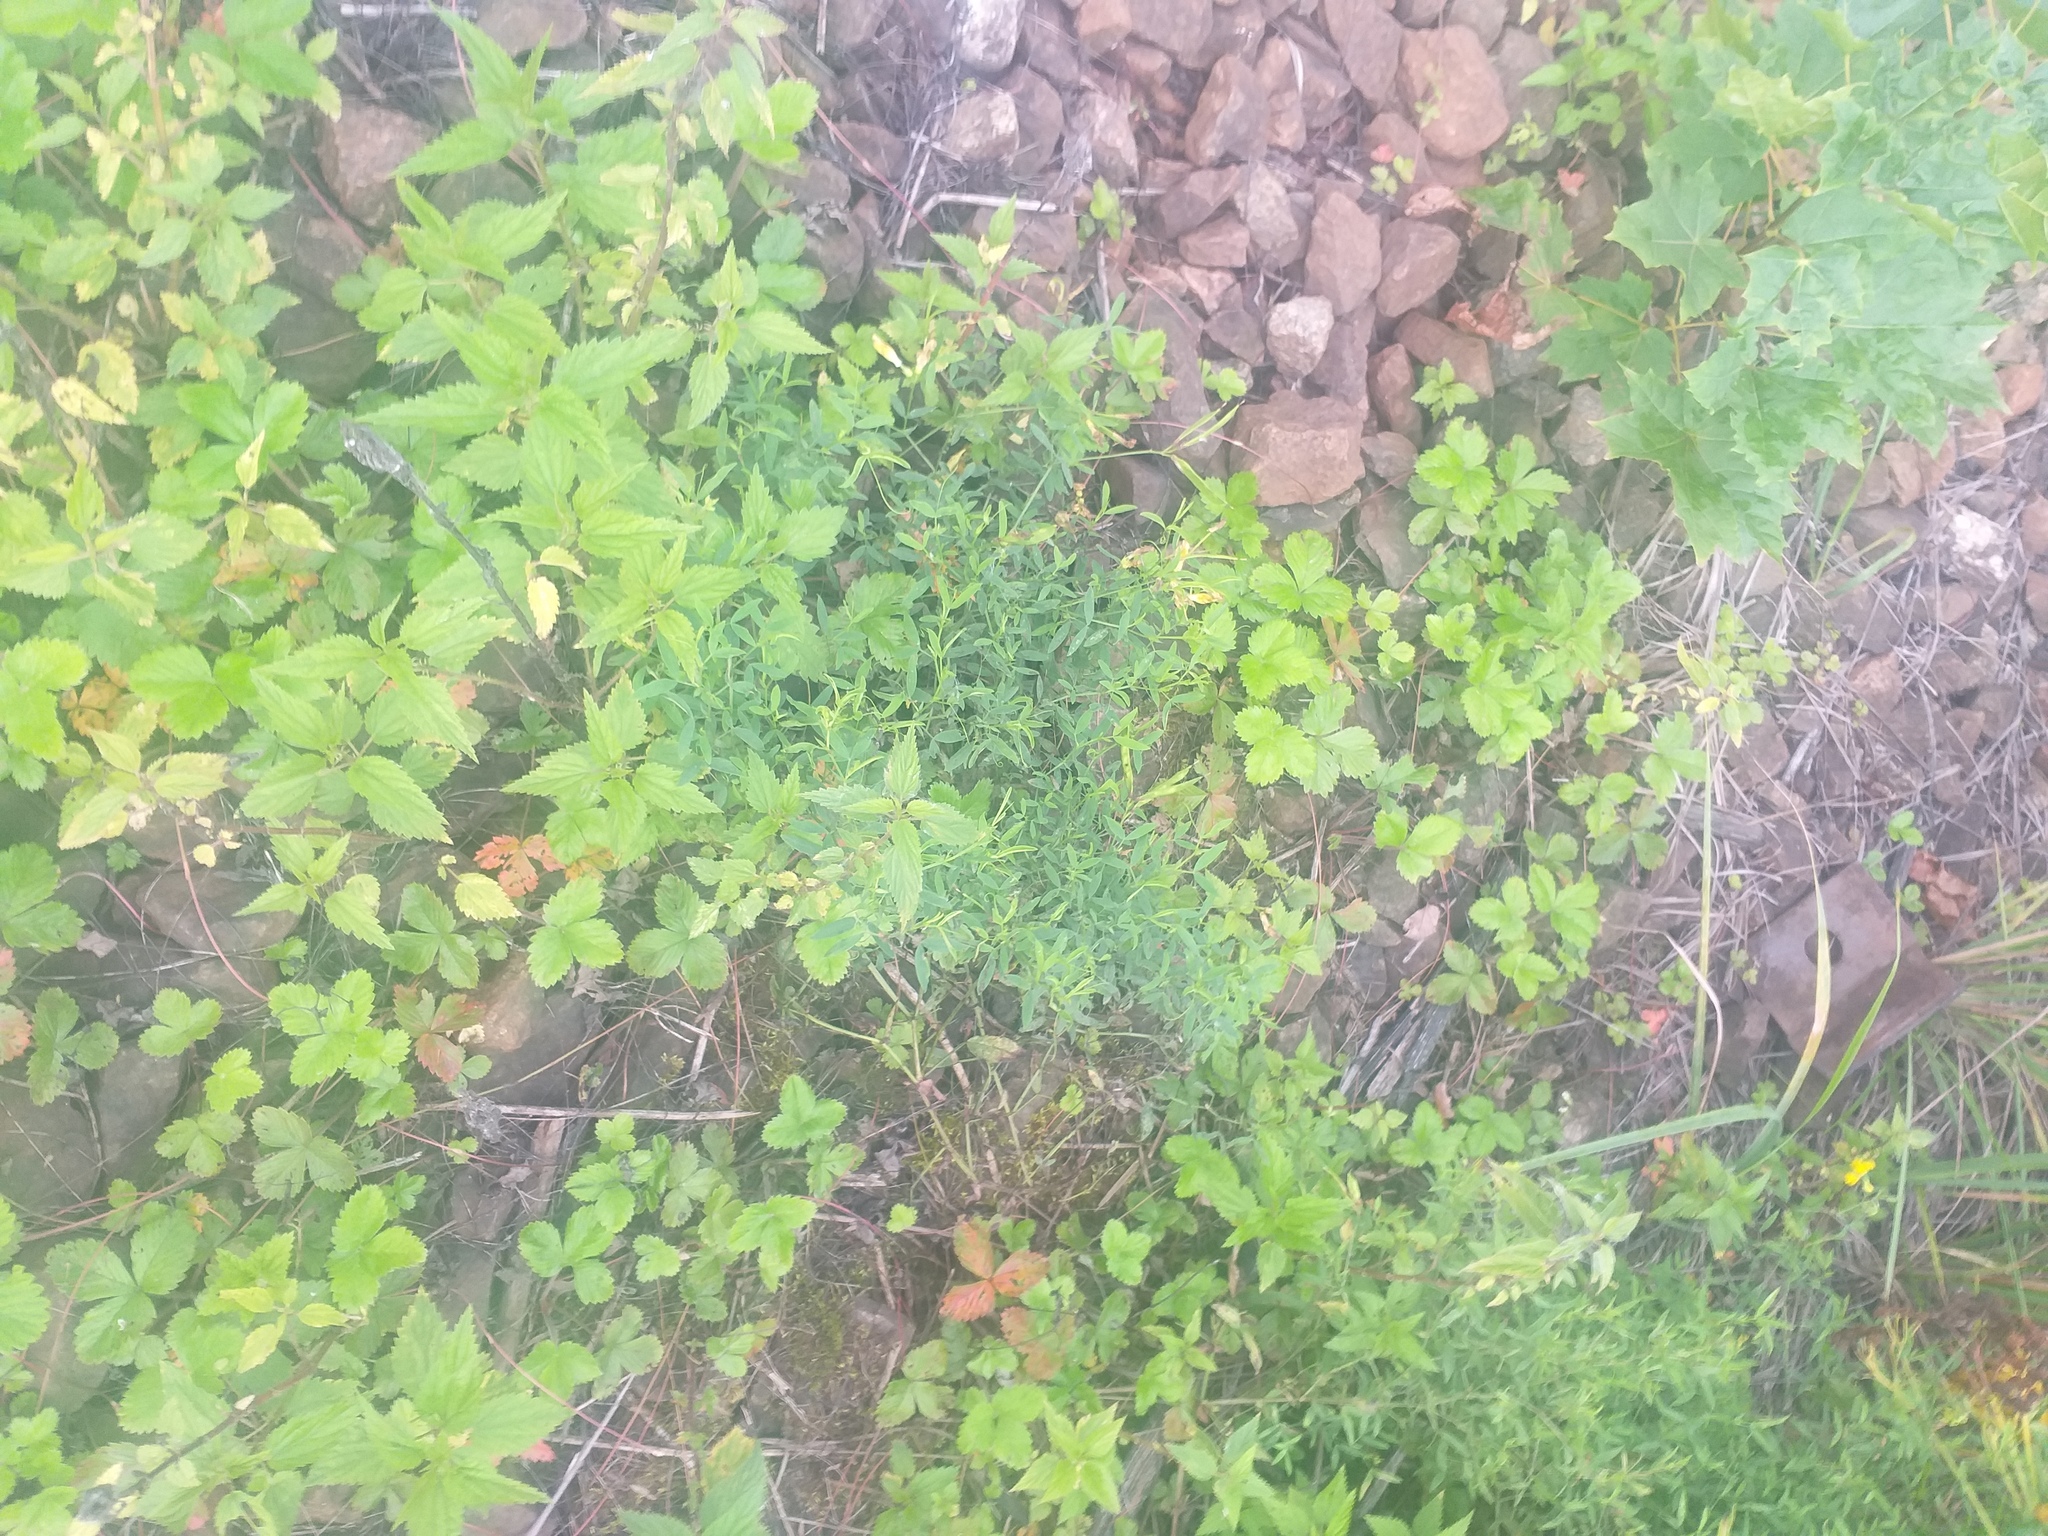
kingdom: Plantae
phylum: Tracheophyta
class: Magnoliopsida
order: Fabales
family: Fabaceae
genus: Lathyrus
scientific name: Lathyrus pratensis
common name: Meadow vetchling
